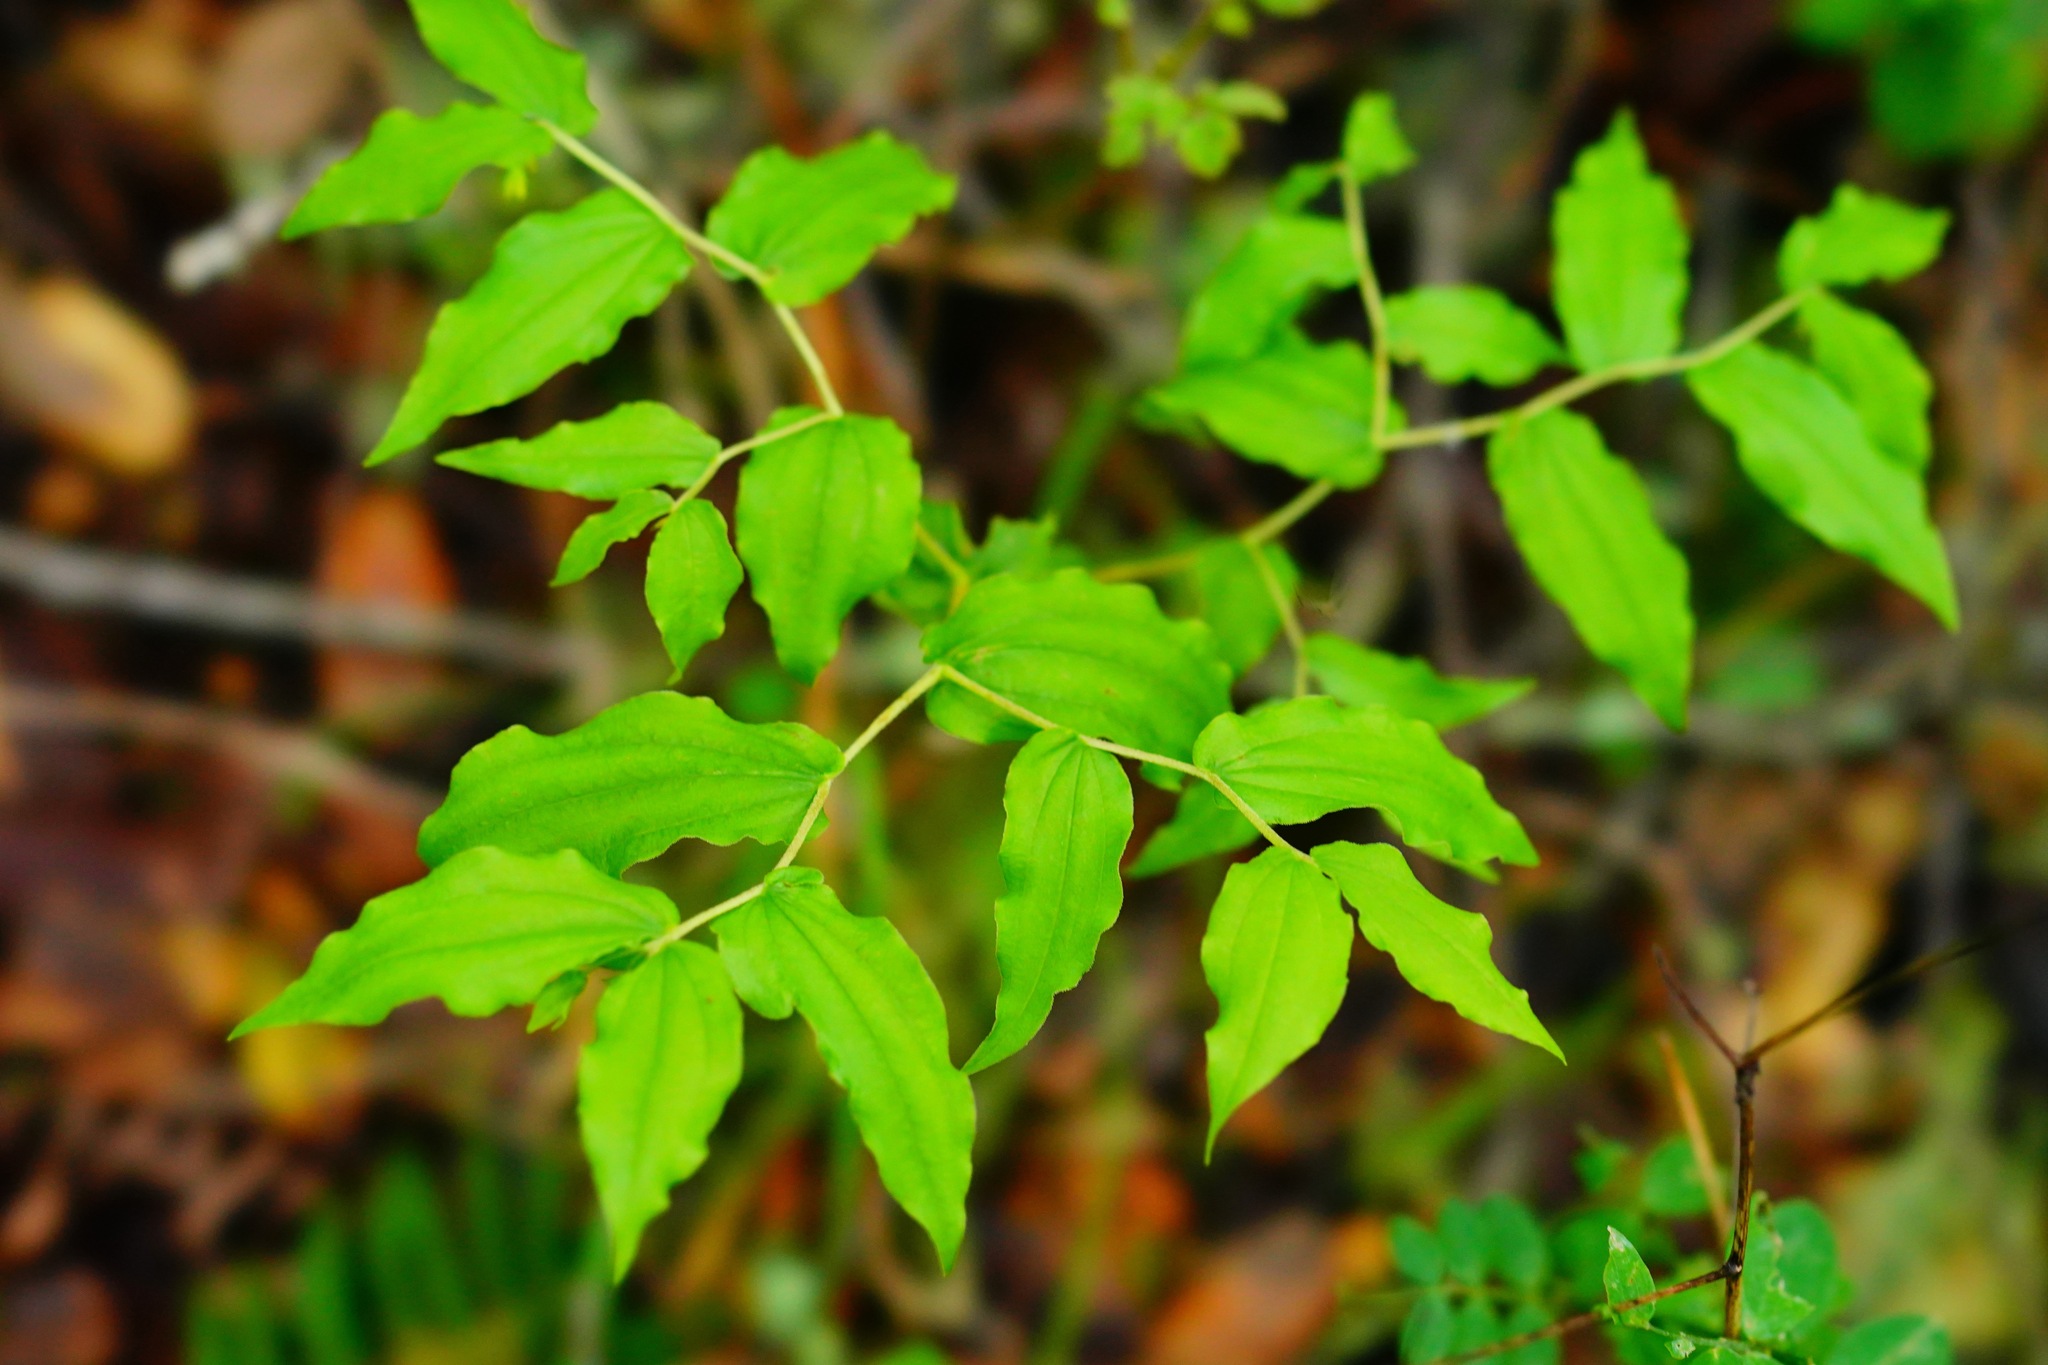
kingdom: Plantae
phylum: Tracheophyta
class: Liliopsida
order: Liliales
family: Liliaceae
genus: Prosartes
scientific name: Prosartes hookeri
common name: Fairy-bells
